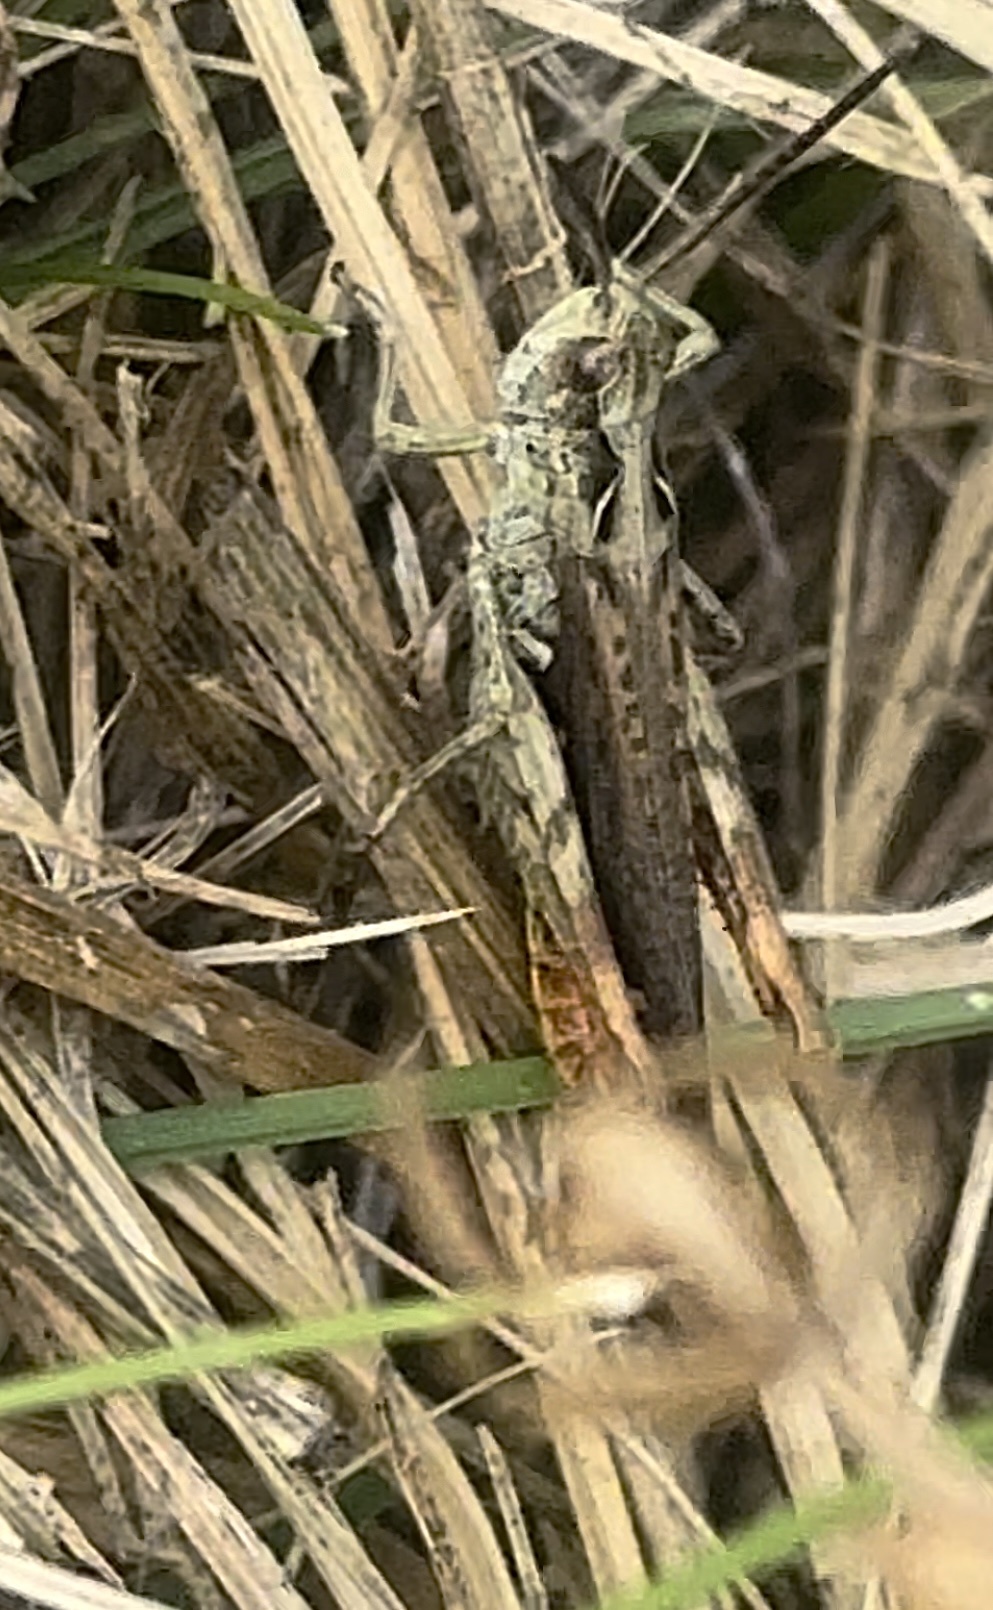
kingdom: Animalia
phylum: Arthropoda
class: Insecta
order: Orthoptera
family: Acrididae
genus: Chorthippus
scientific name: Chorthippus biguttulus
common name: Bow-winged grasshopper
